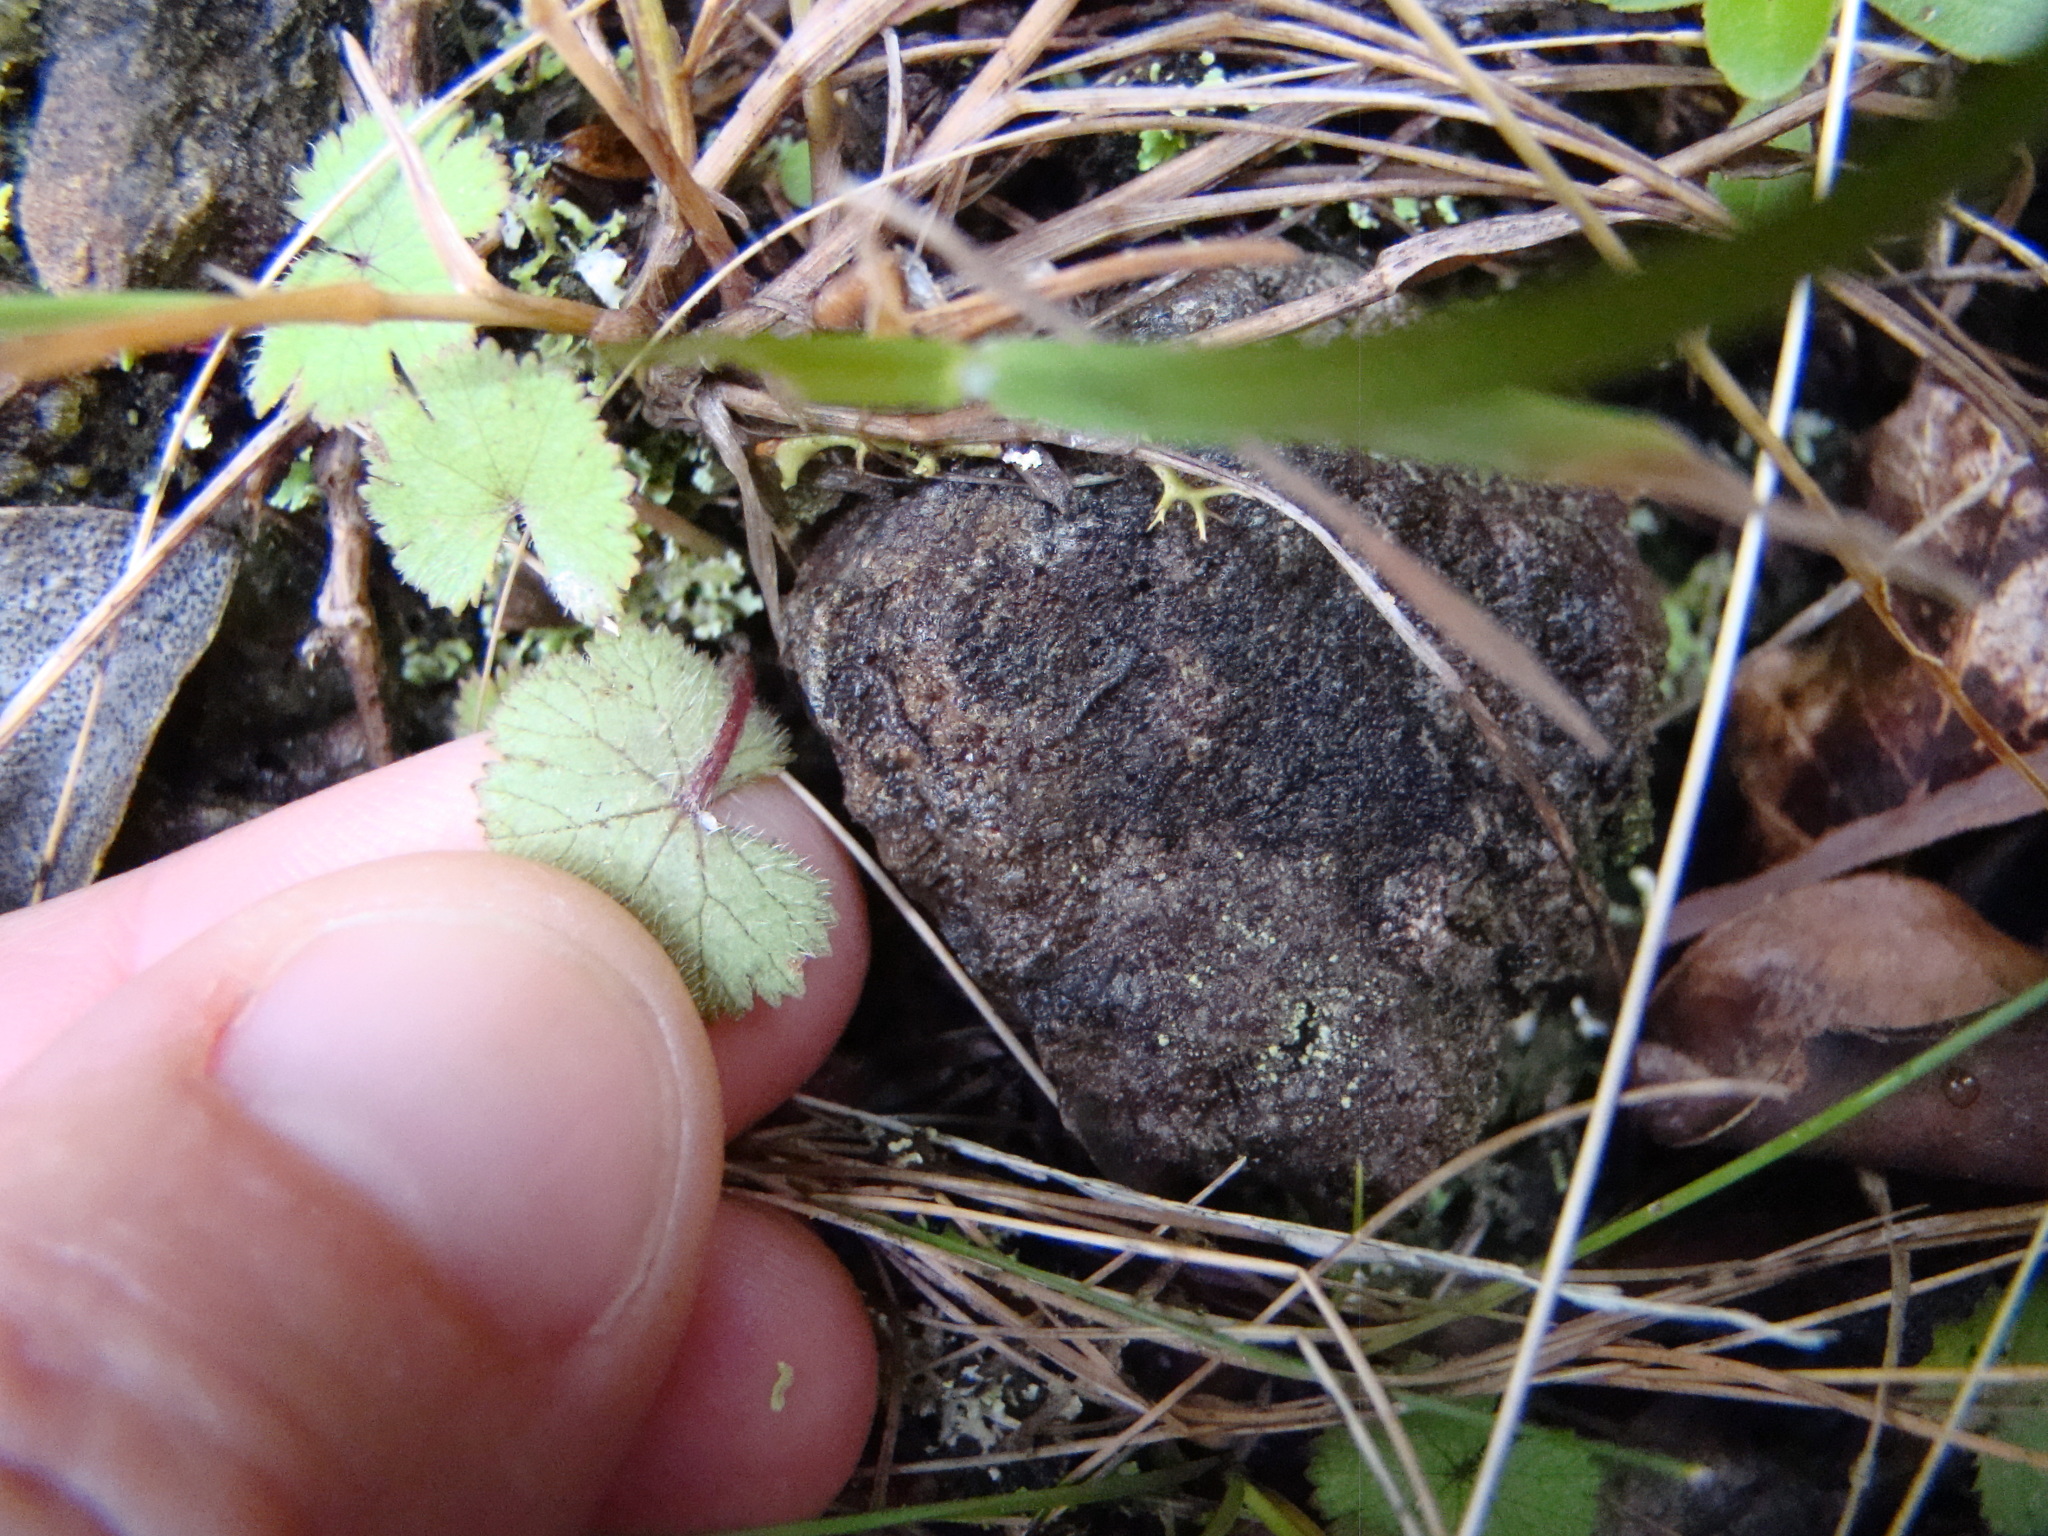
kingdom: Plantae
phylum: Tracheophyta
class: Magnoliopsida
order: Apiales
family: Araliaceae
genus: Hydrocotyle
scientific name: Hydrocotyle moschata
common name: Hairy pennywort
